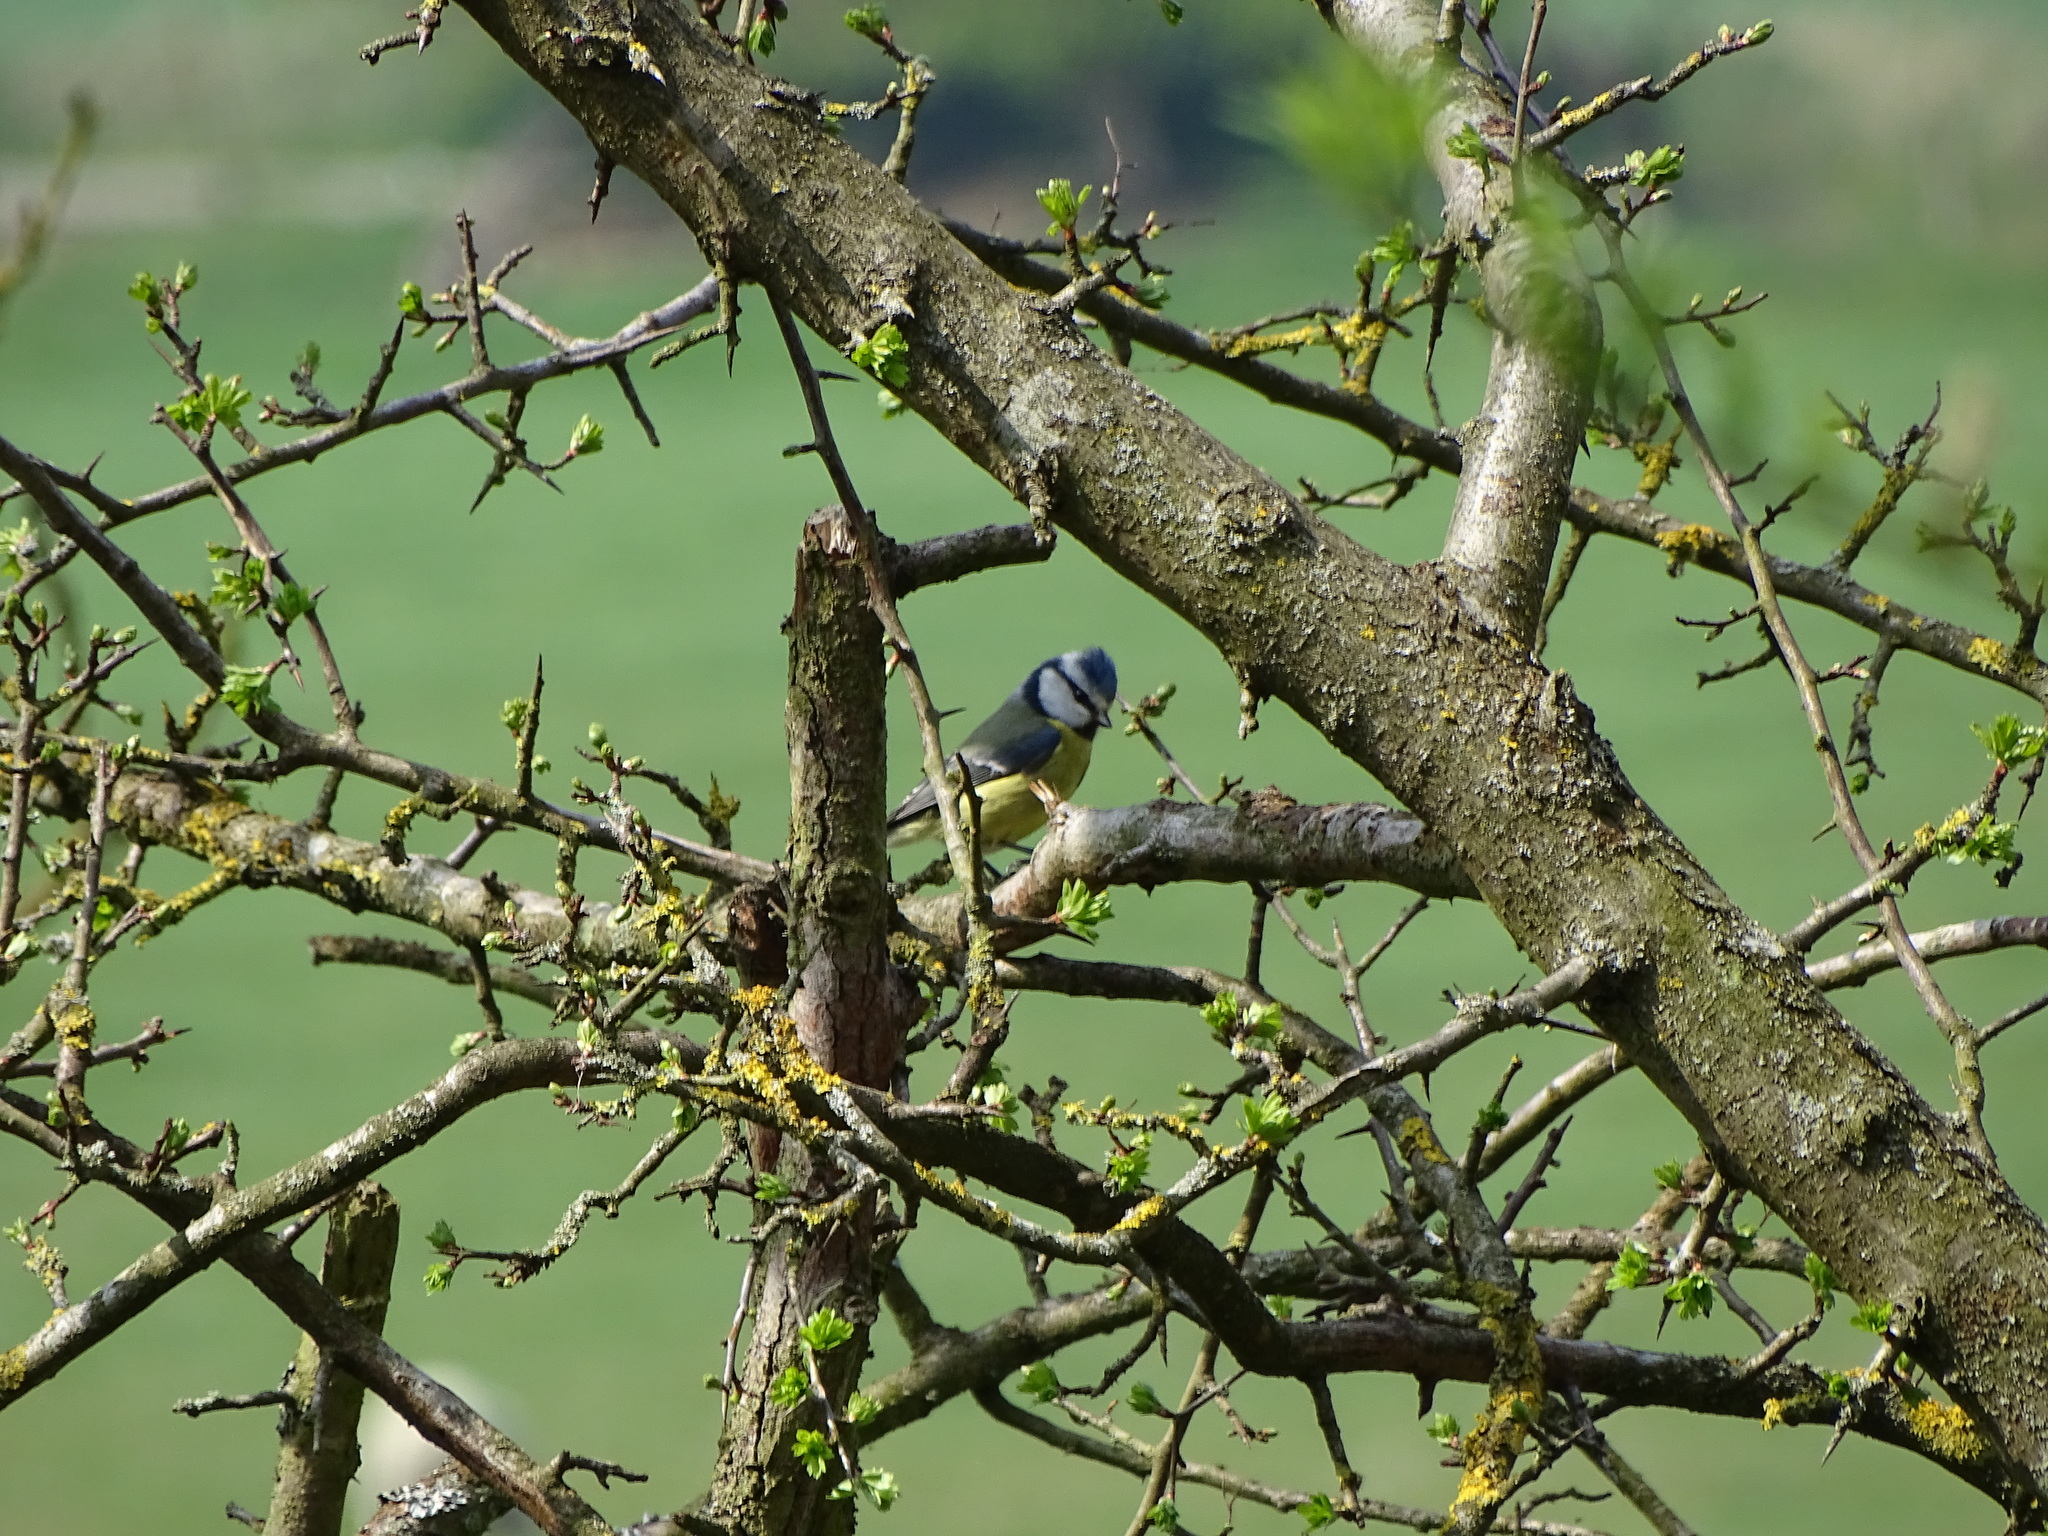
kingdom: Animalia
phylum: Chordata
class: Aves
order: Passeriformes
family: Paridae
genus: Cyanistes
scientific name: Cyanistes caeruleus
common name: Eurasian blue tit
